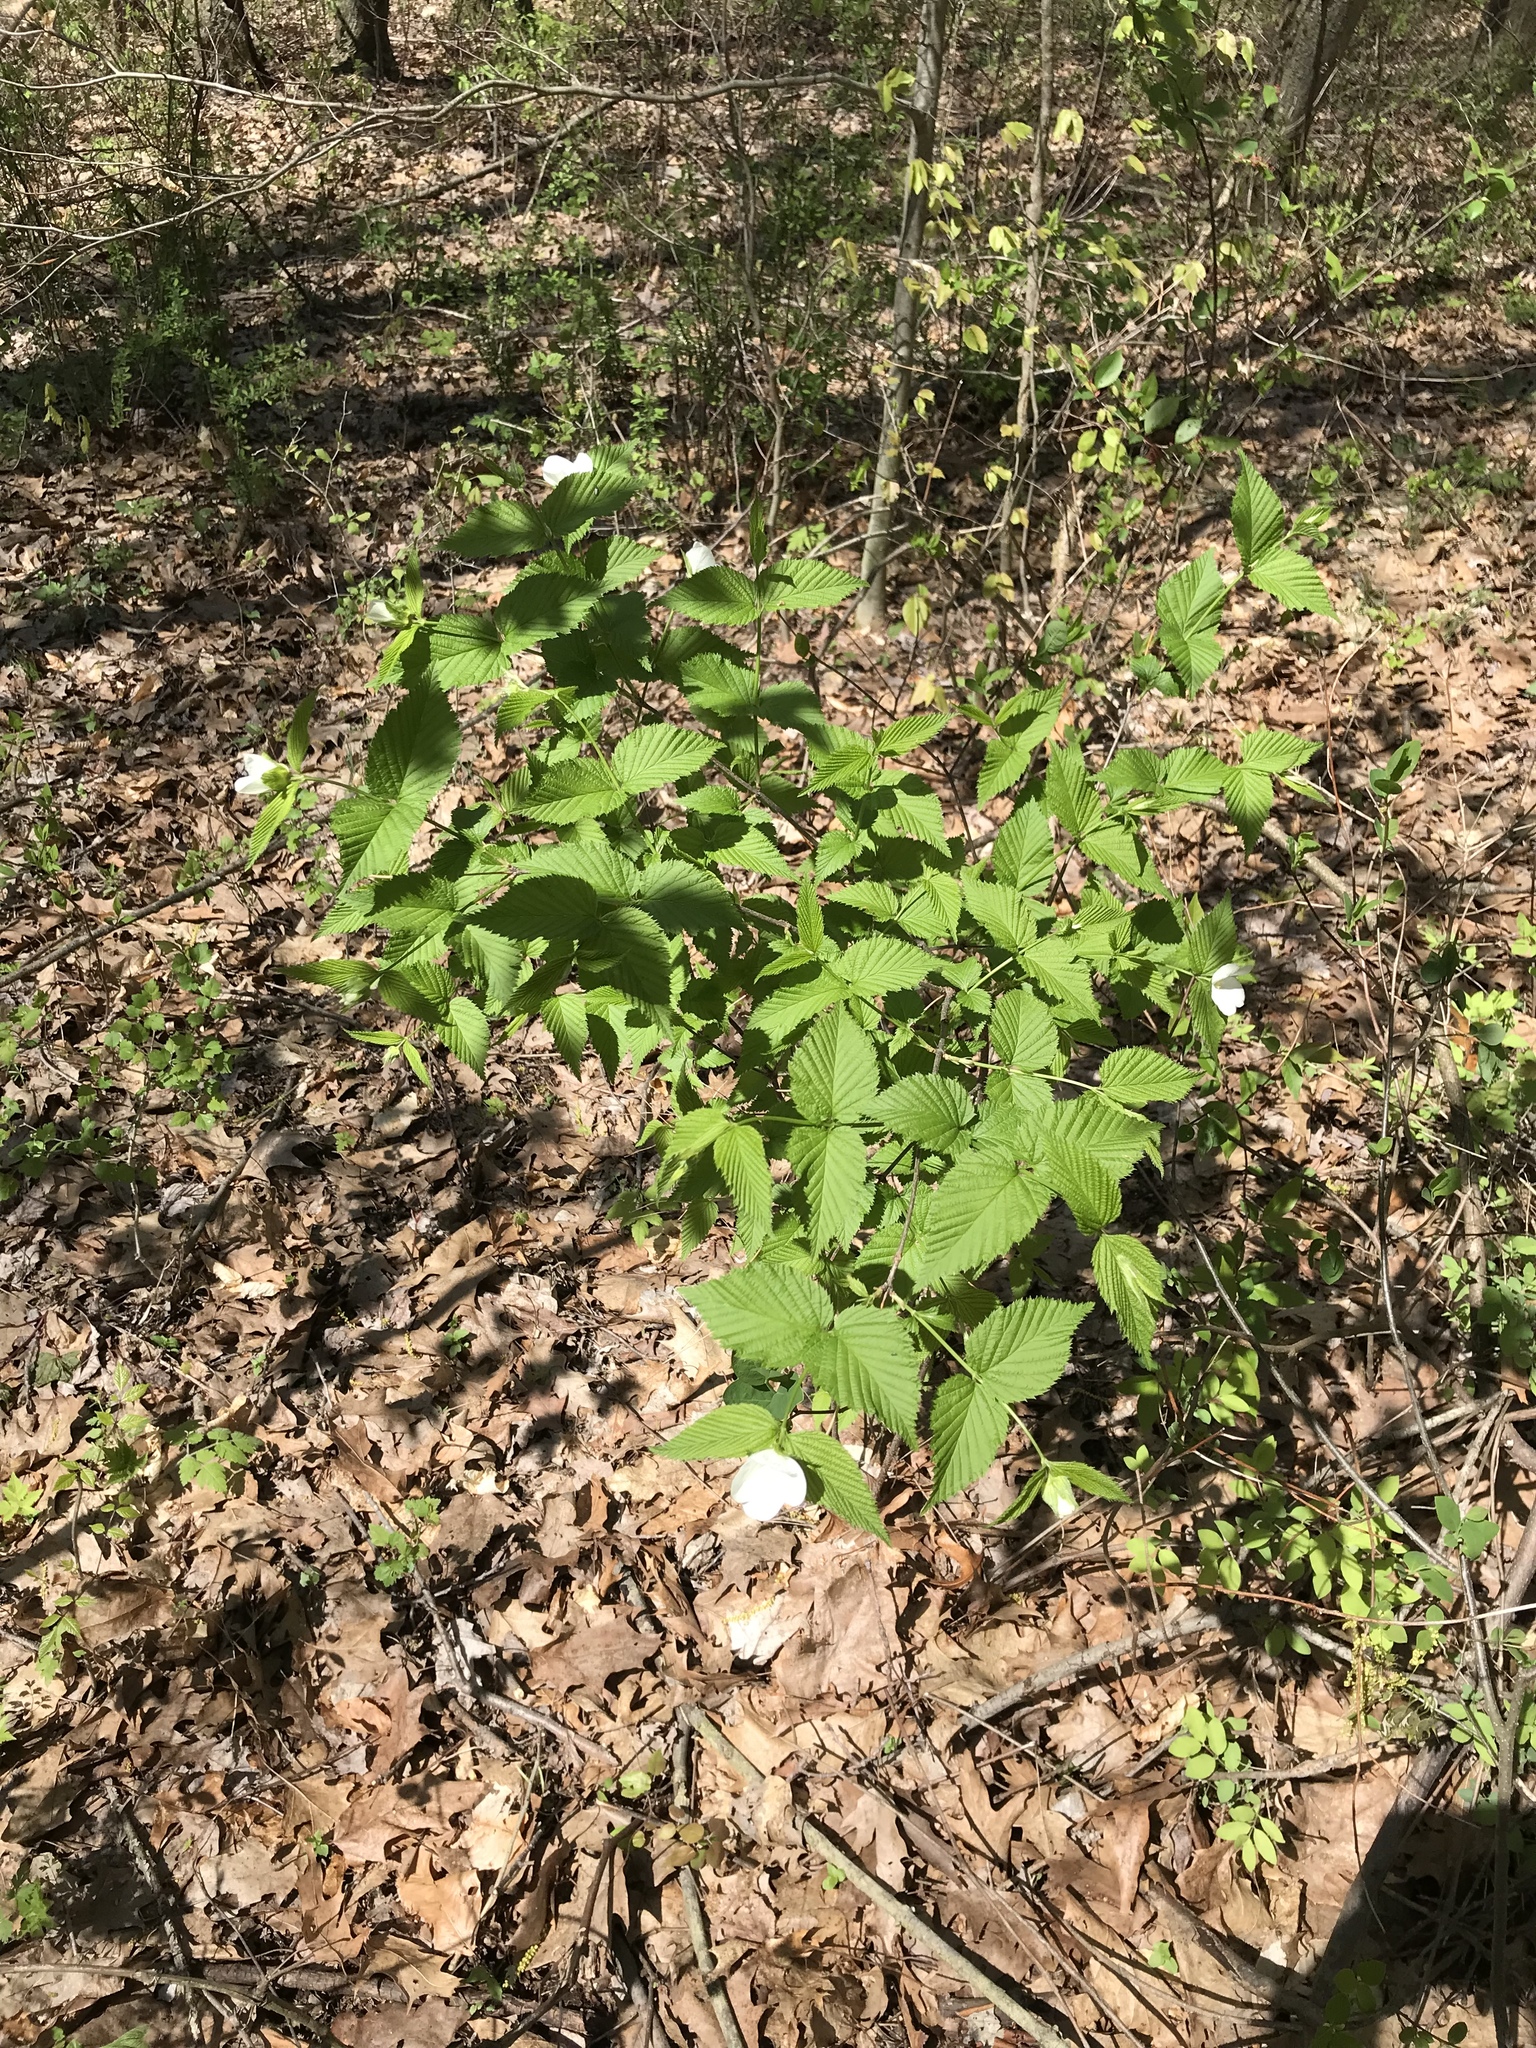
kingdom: Plantae
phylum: Tracheophyta
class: Magnoliopsida
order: Rosales
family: Rosaceae
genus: Rhodotypos
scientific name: Rhodotypos scandens
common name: Jetbead
